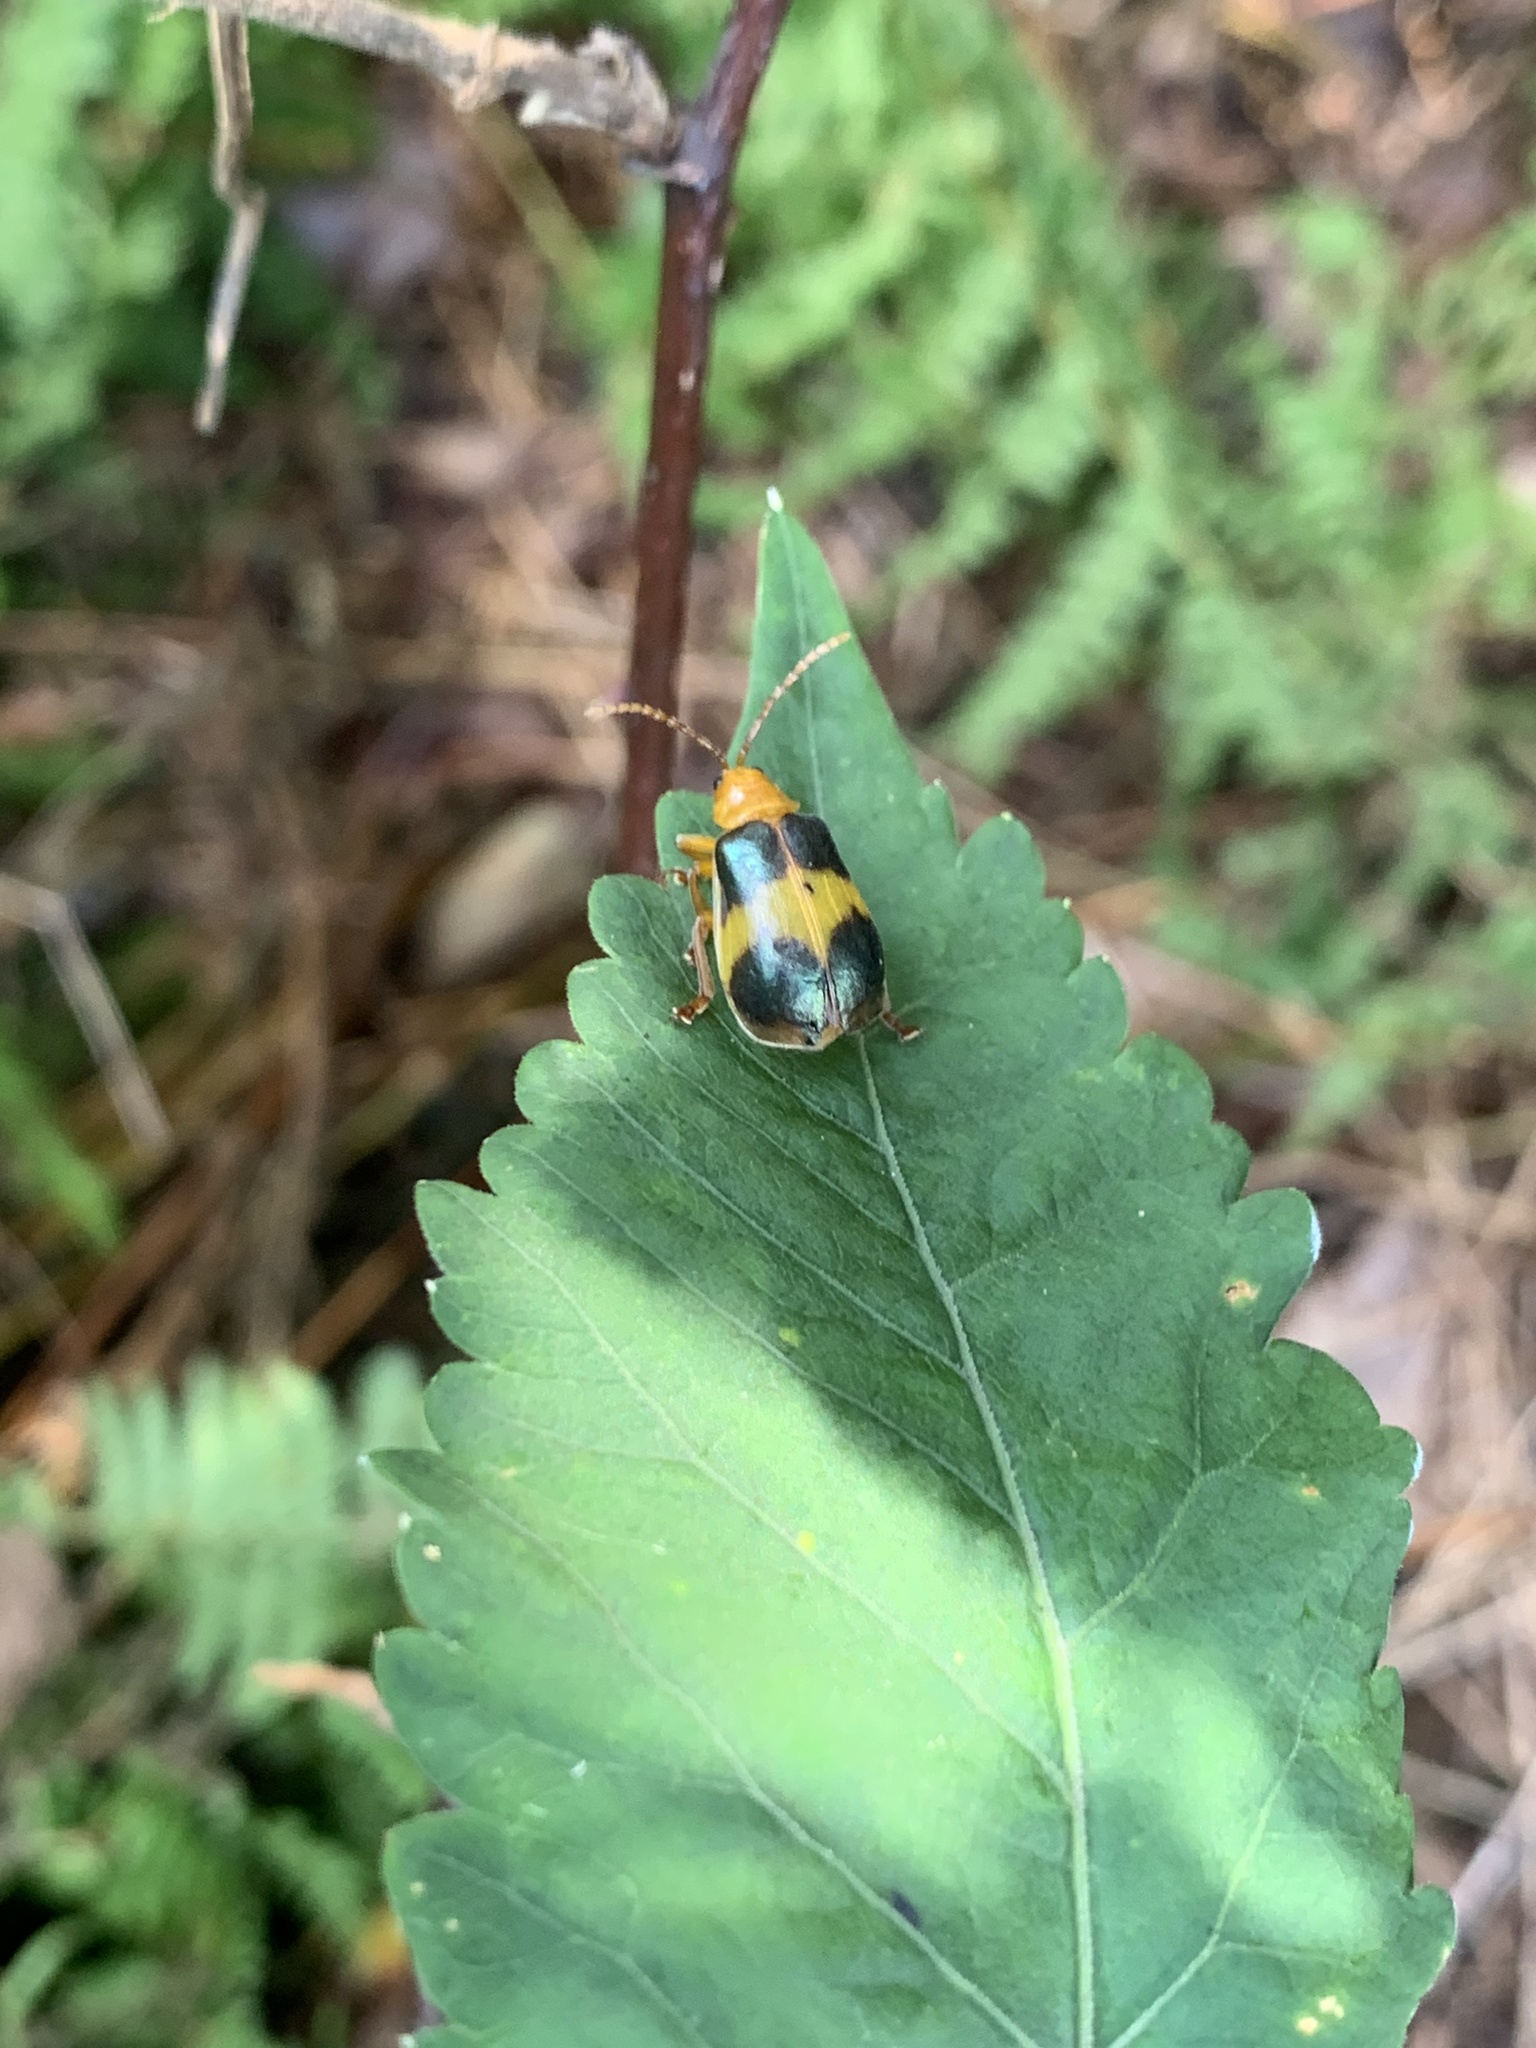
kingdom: Animalia
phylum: Arthropoda
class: Insecta
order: Coleoptera
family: Chrysomelidae
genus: Monocesta
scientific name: Monocesta coryli
